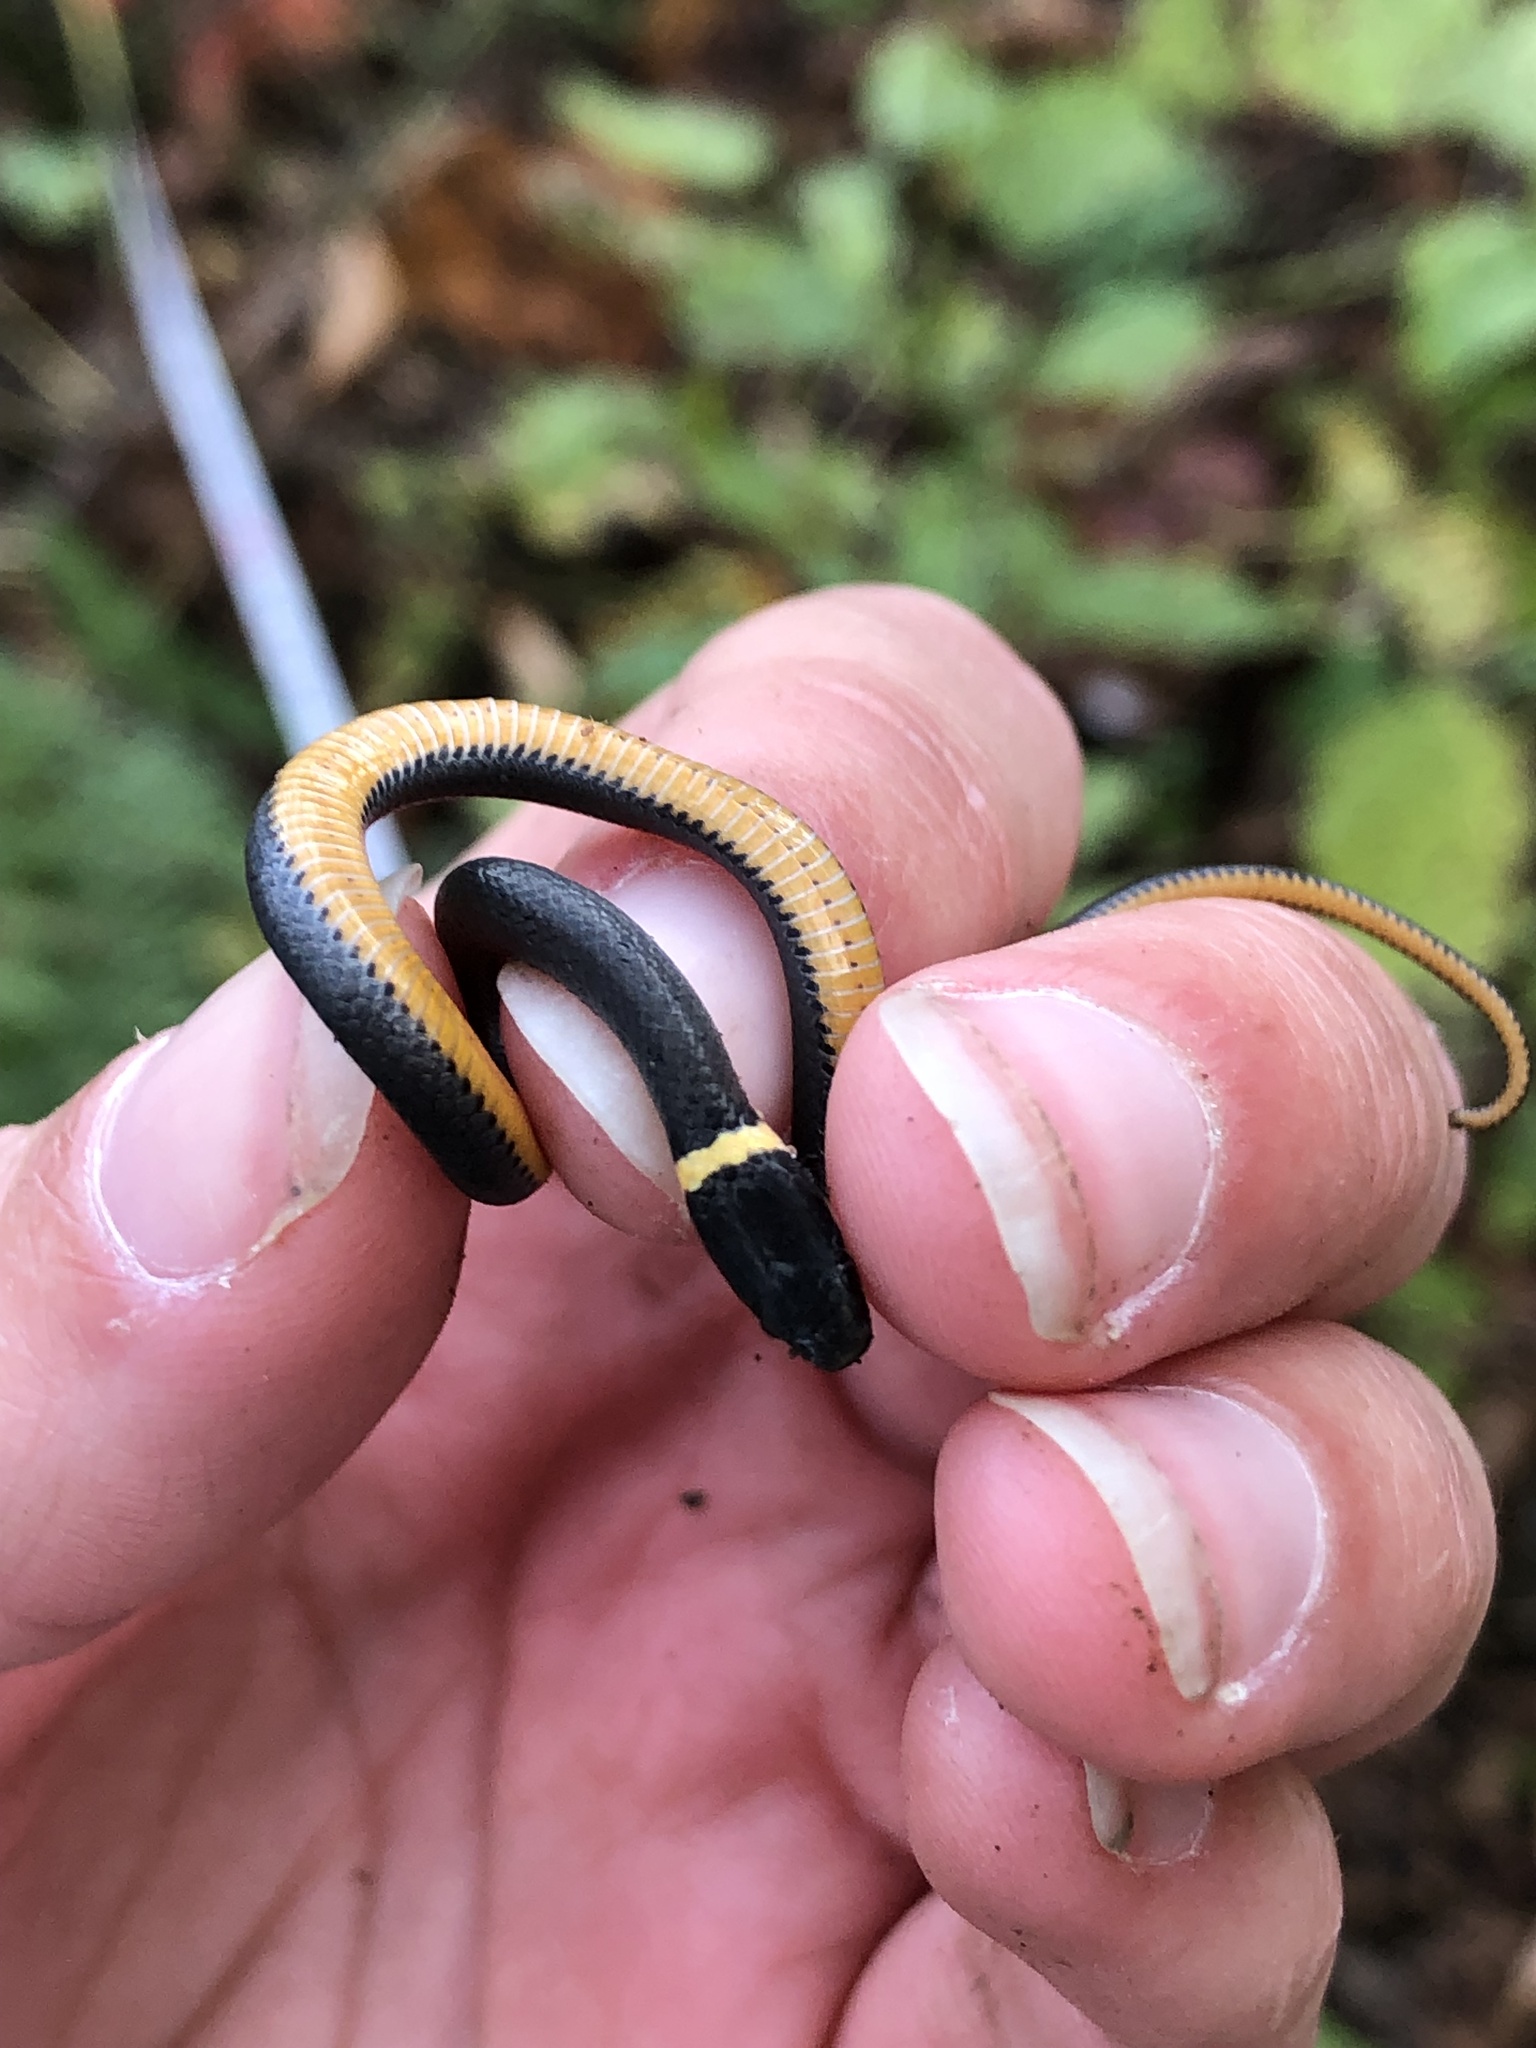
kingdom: Animalia
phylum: Chordata
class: Squamata
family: Colubridae
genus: Diadophis
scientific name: Diadophis punctatus
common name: Ringneck snake
